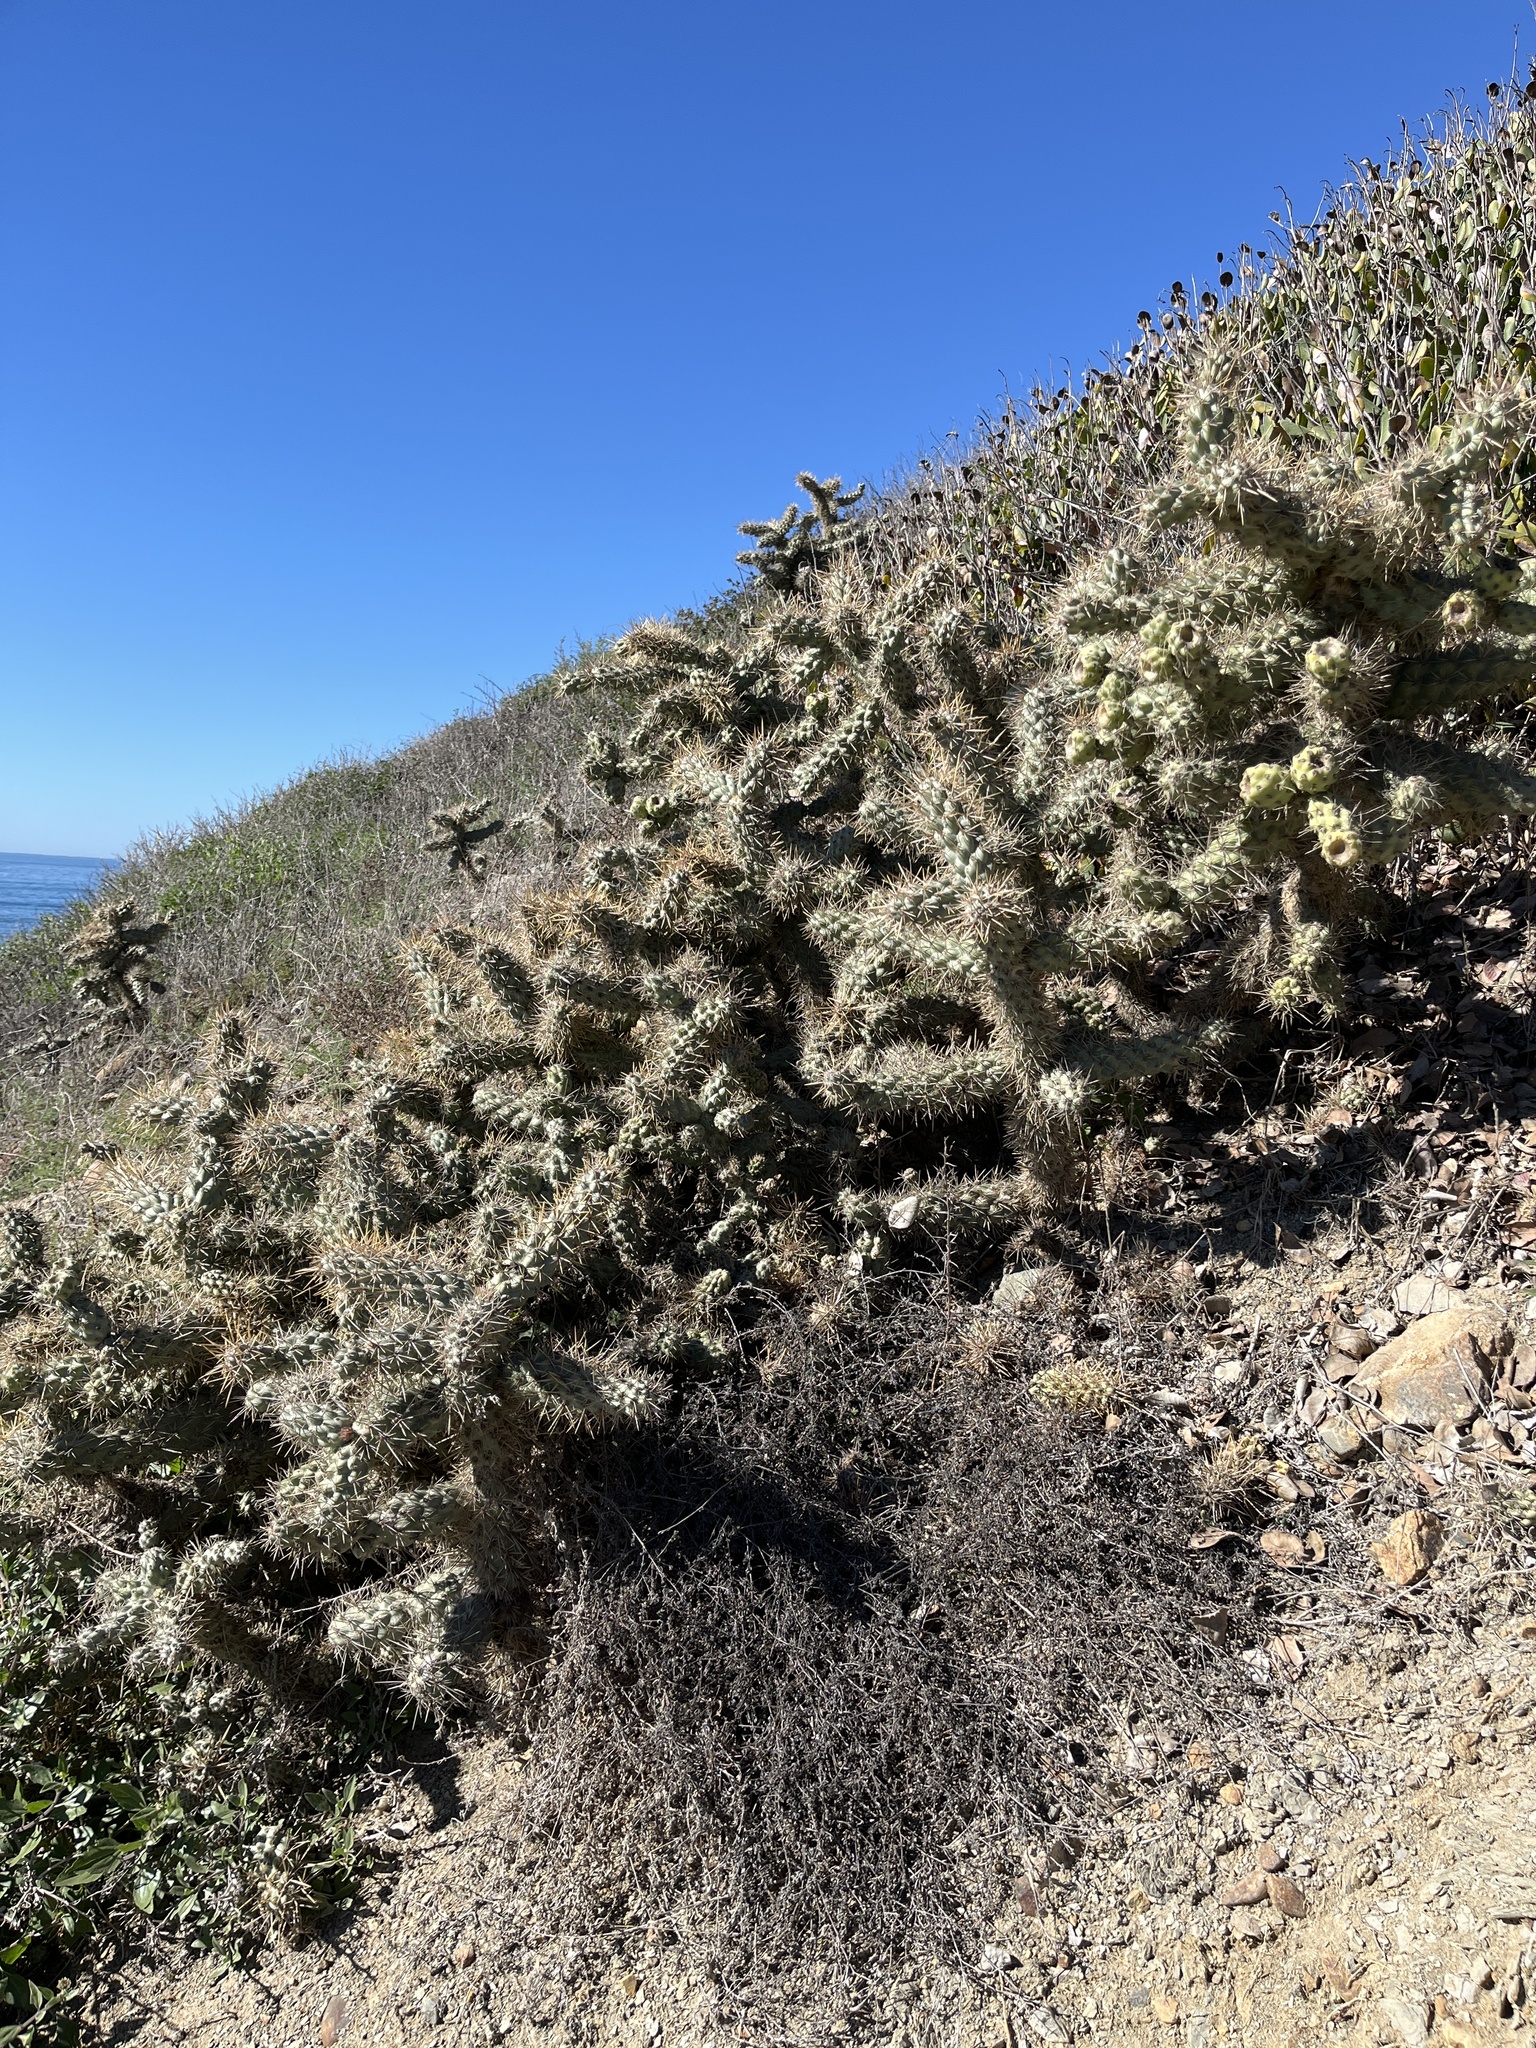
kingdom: Plantae
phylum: Tracheophyta
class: Magnoliopsida
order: Caryophyllales
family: Cactaceae
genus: Cylindropuntia
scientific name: Cylindropuntia prolifera
